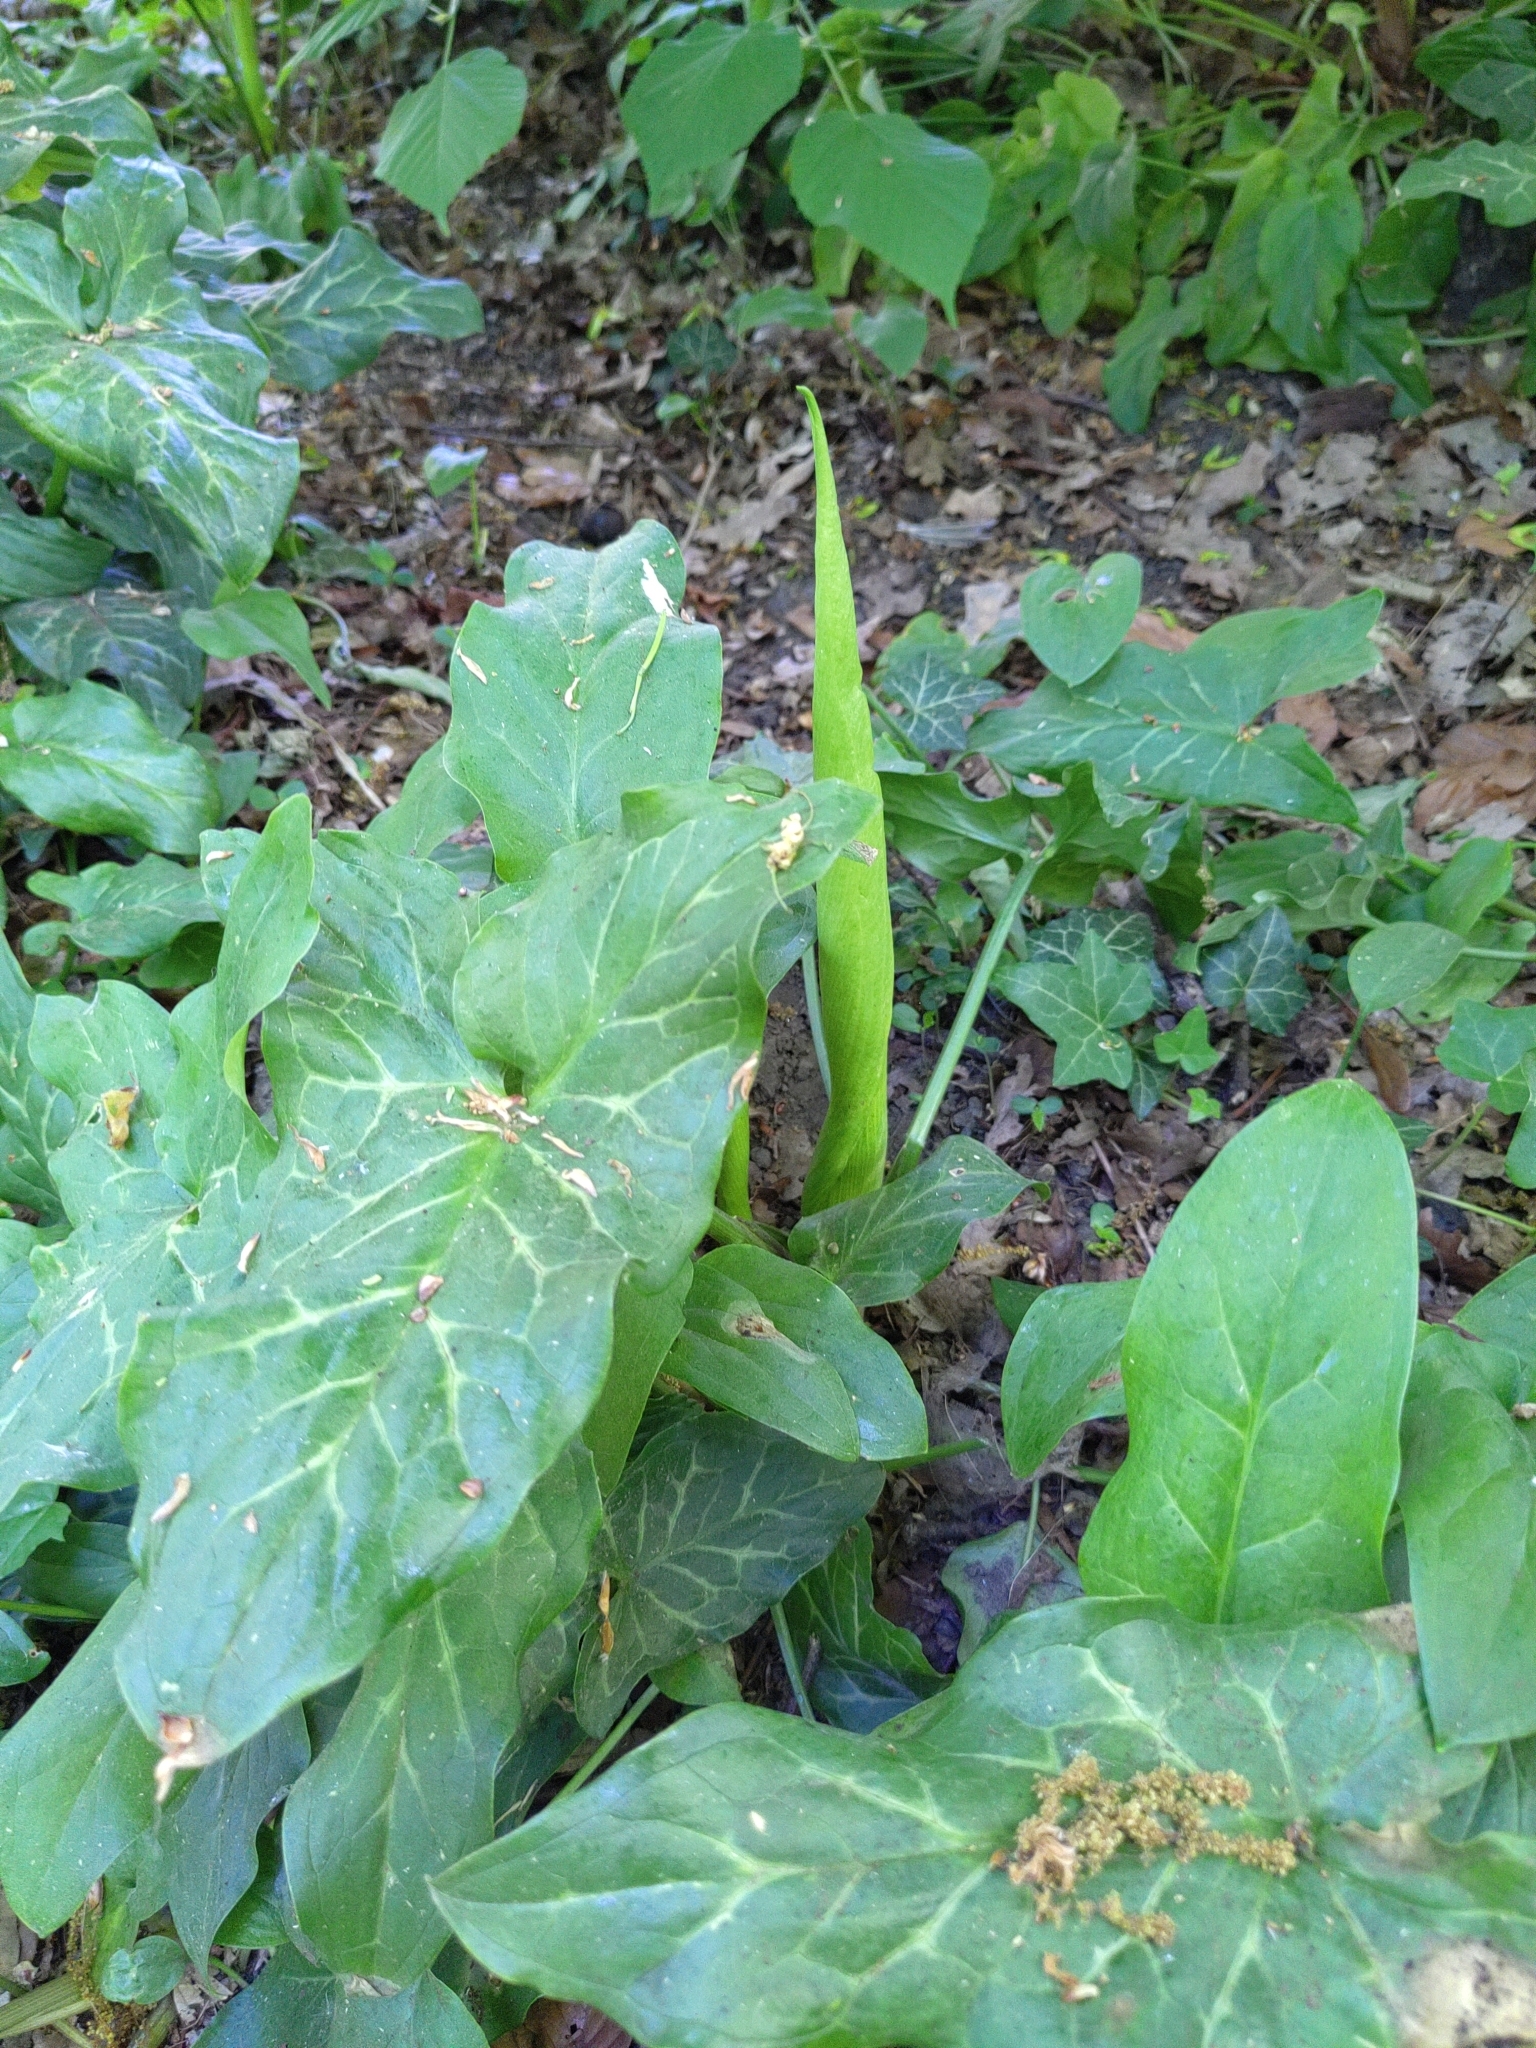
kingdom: Plantae
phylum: Tracheophyta
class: Liliopsida
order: Alismatales
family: Araceae
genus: Arum
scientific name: Arum italicum
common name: Italian lords-and-ladies
